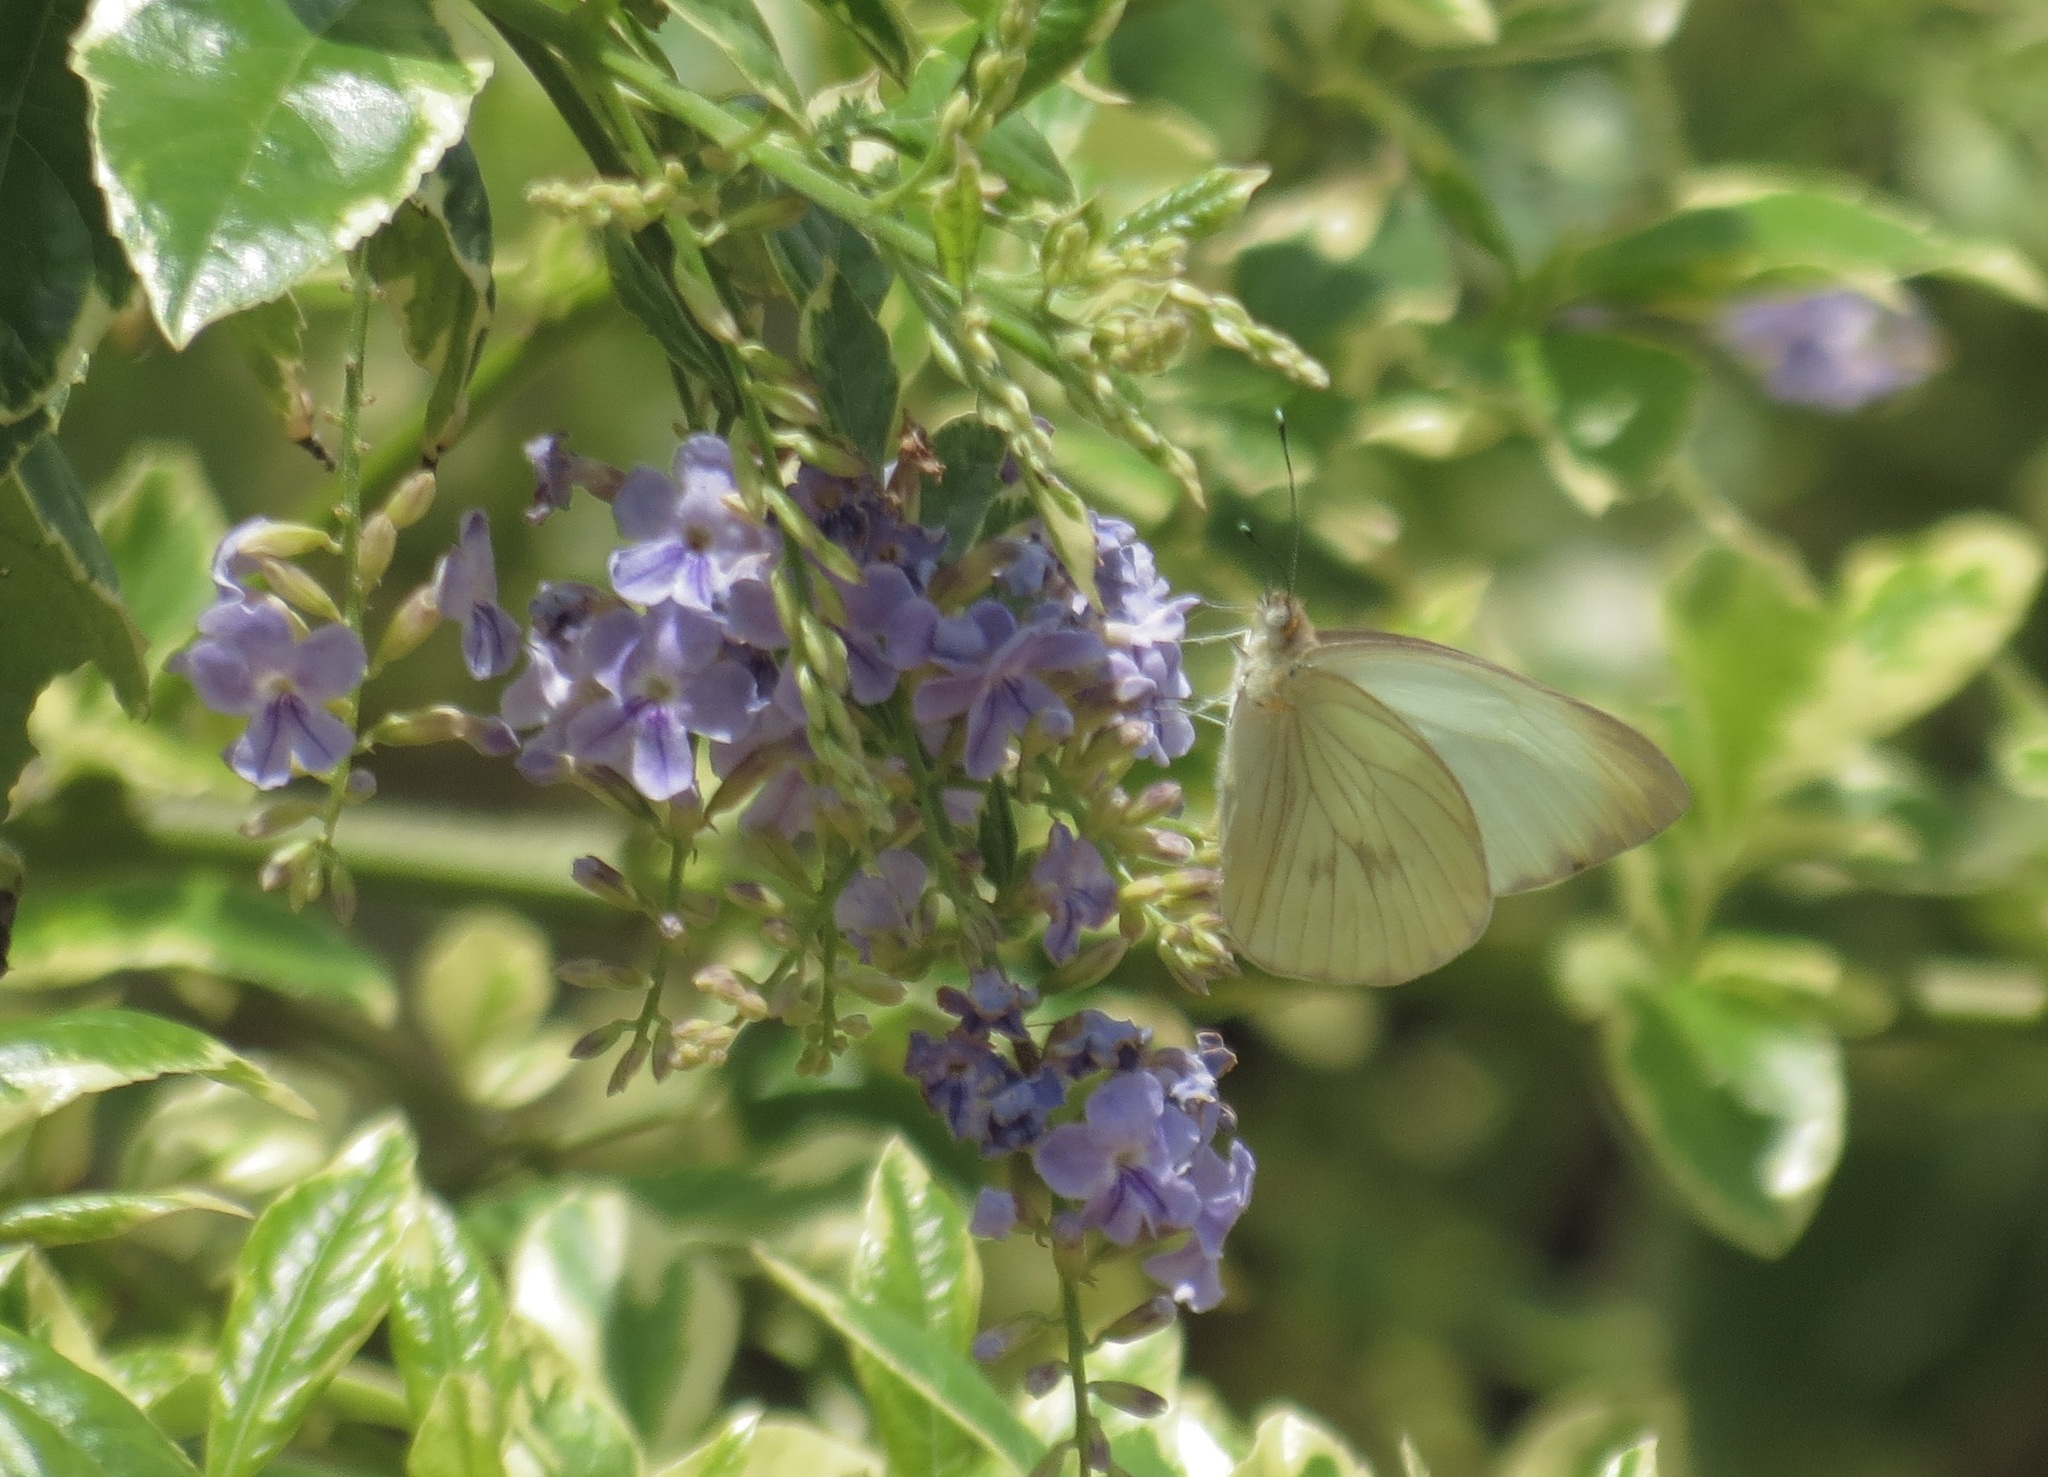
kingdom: Animalia
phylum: Arthropoda
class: Insecta
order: Lepidoptera
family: Pieridae
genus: Ascia
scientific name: Ascia monuste
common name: Great southern white
